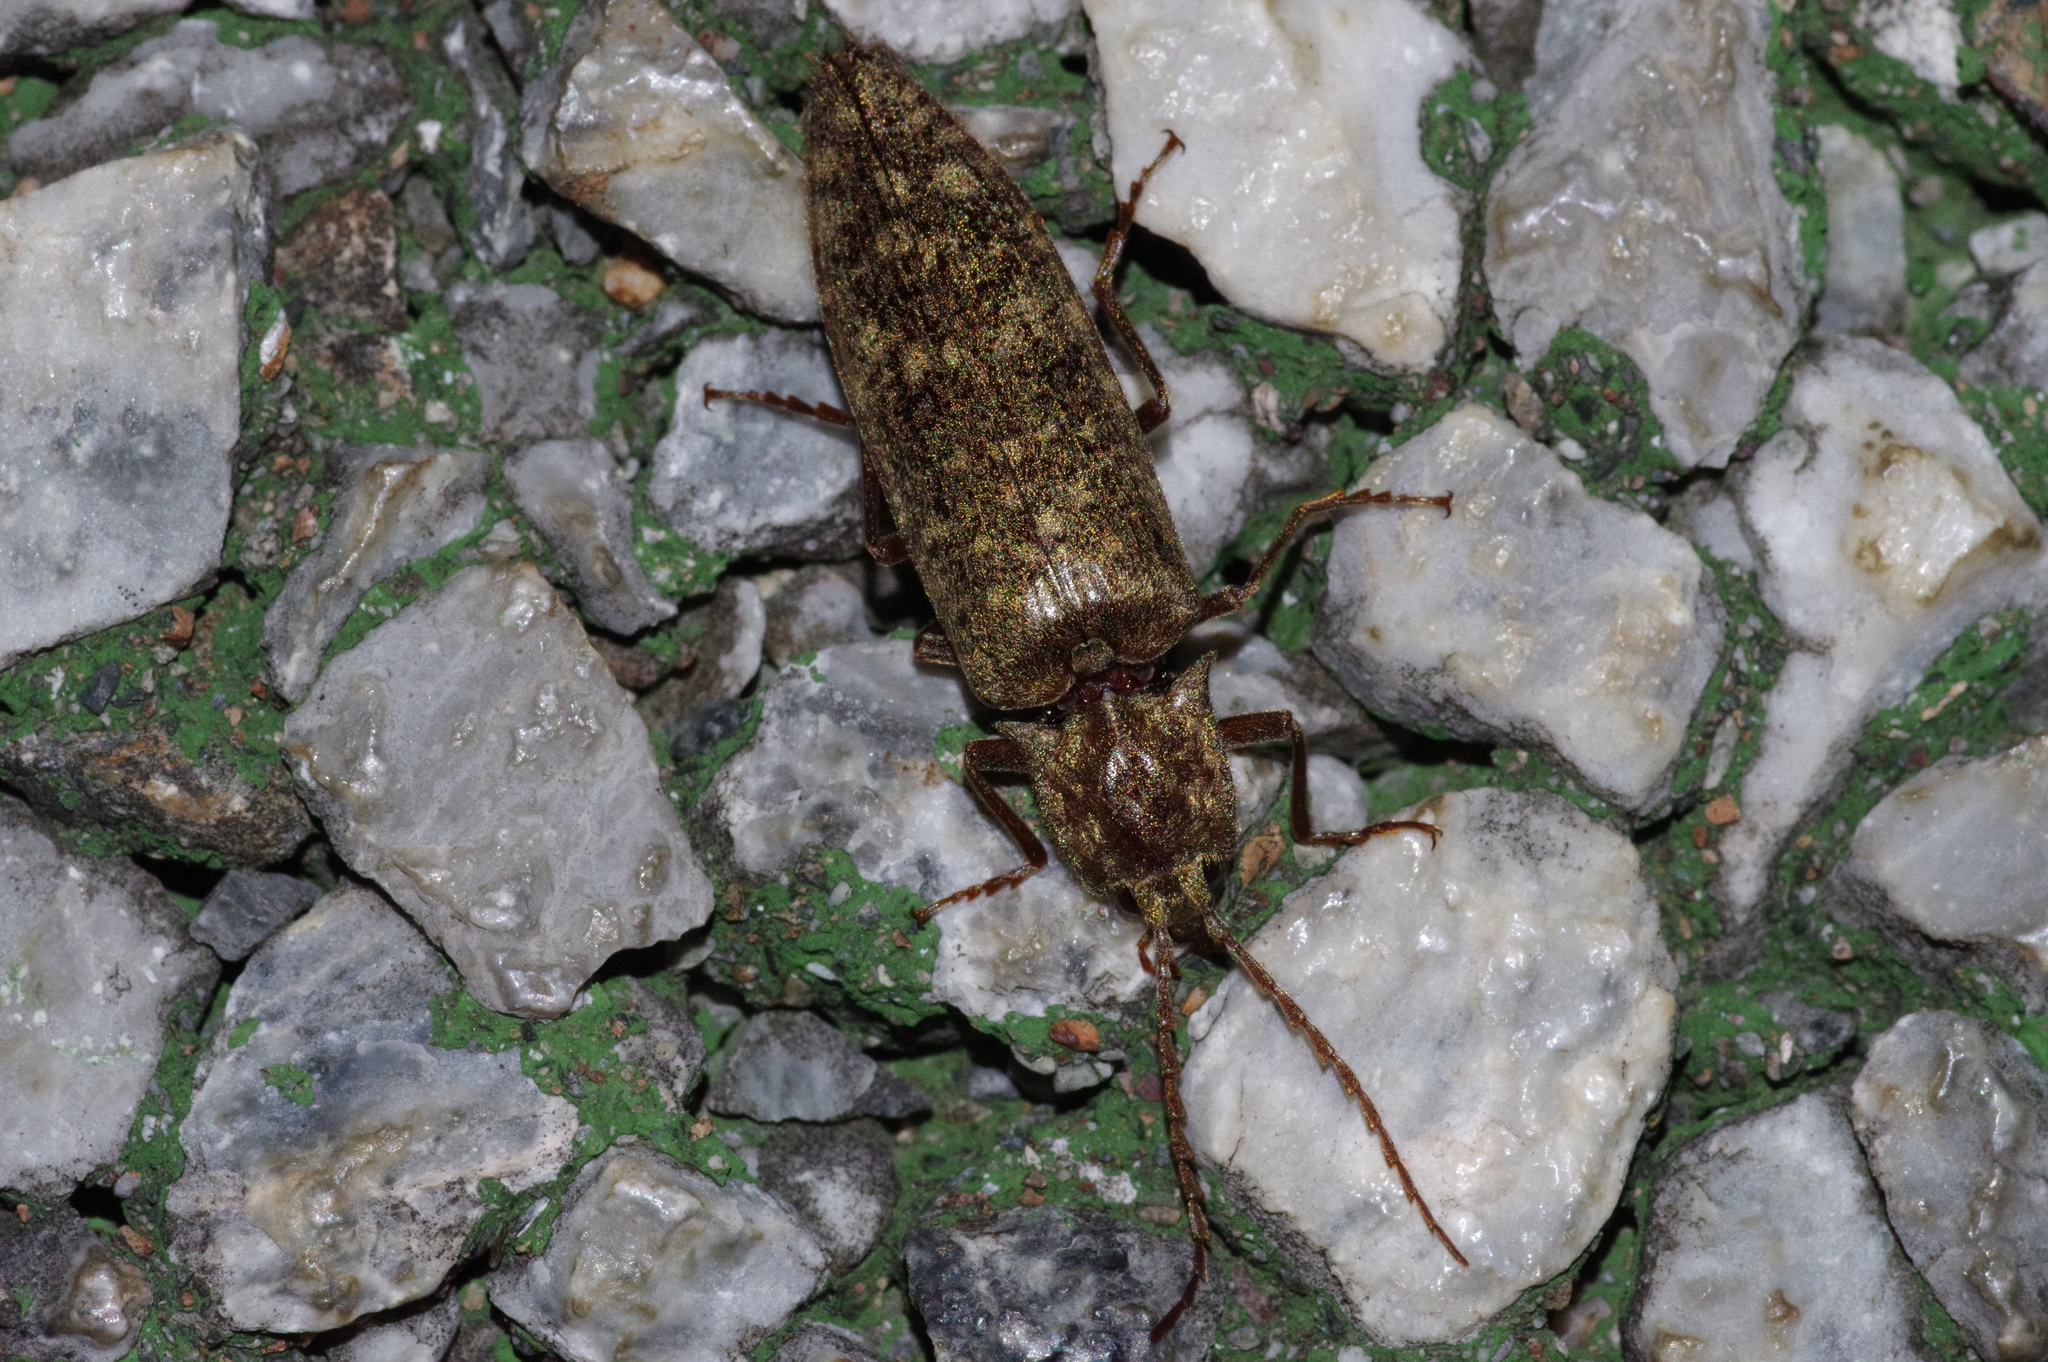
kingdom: Animalia
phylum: Arthropoda
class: Insecta
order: Coleoptera
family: Elateridae
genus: Pectocera
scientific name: Pectocera yonaha
